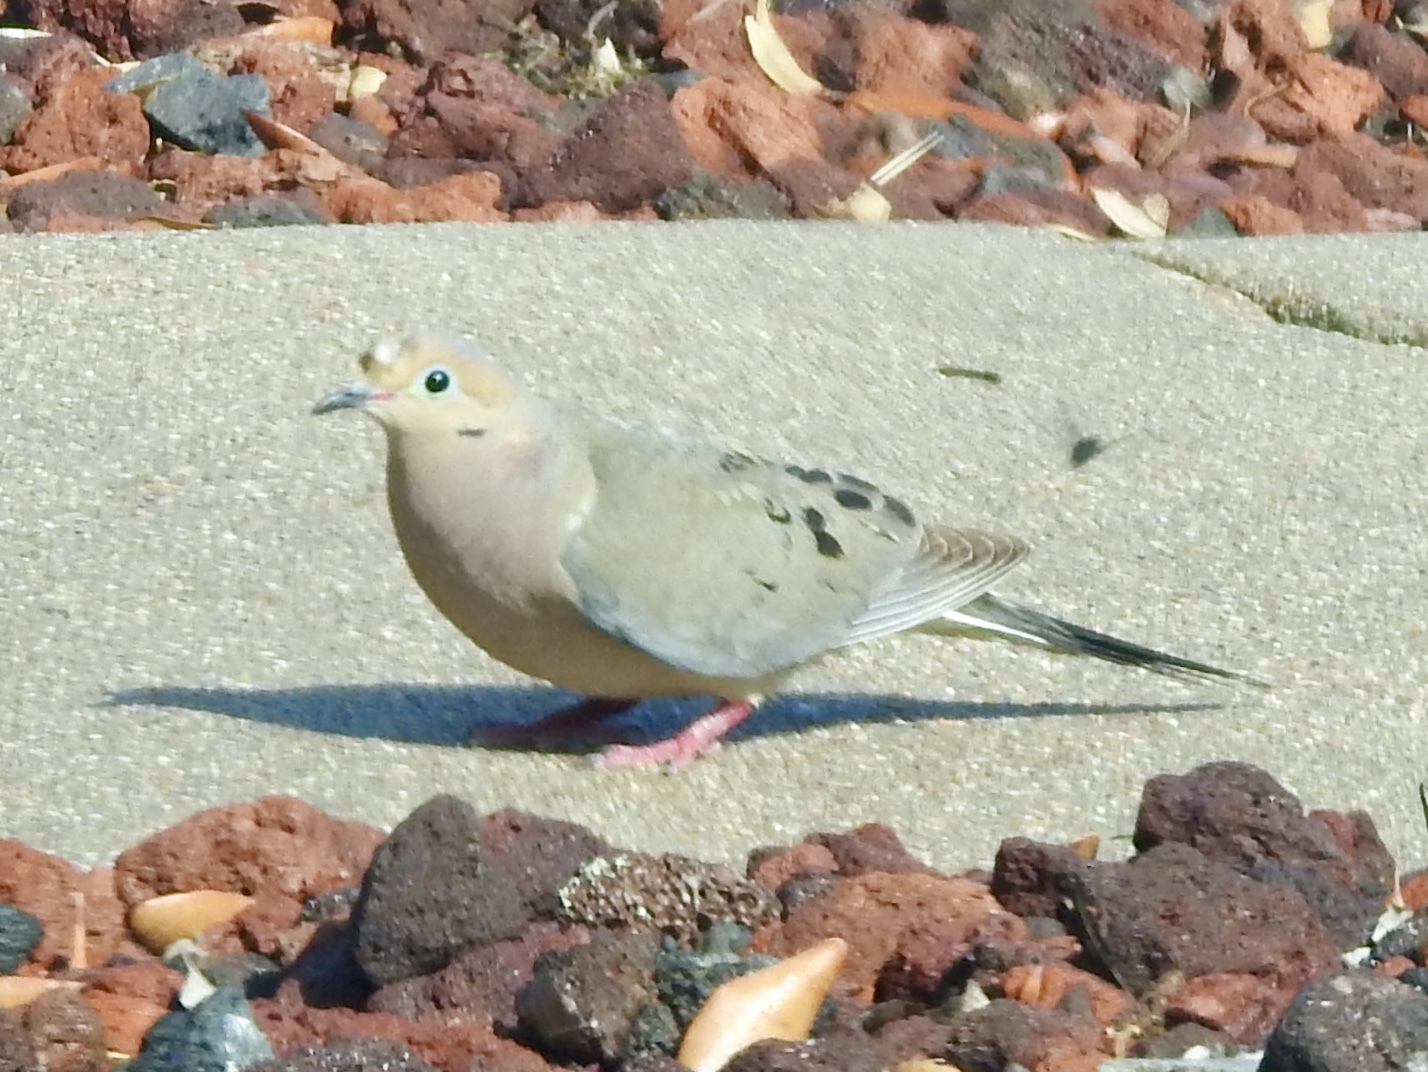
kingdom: Animalia
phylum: Chordata
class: Aves
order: Columbiformes
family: Columbidae
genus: Zenaida
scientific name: Zenaida macroura
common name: Mourning dove
